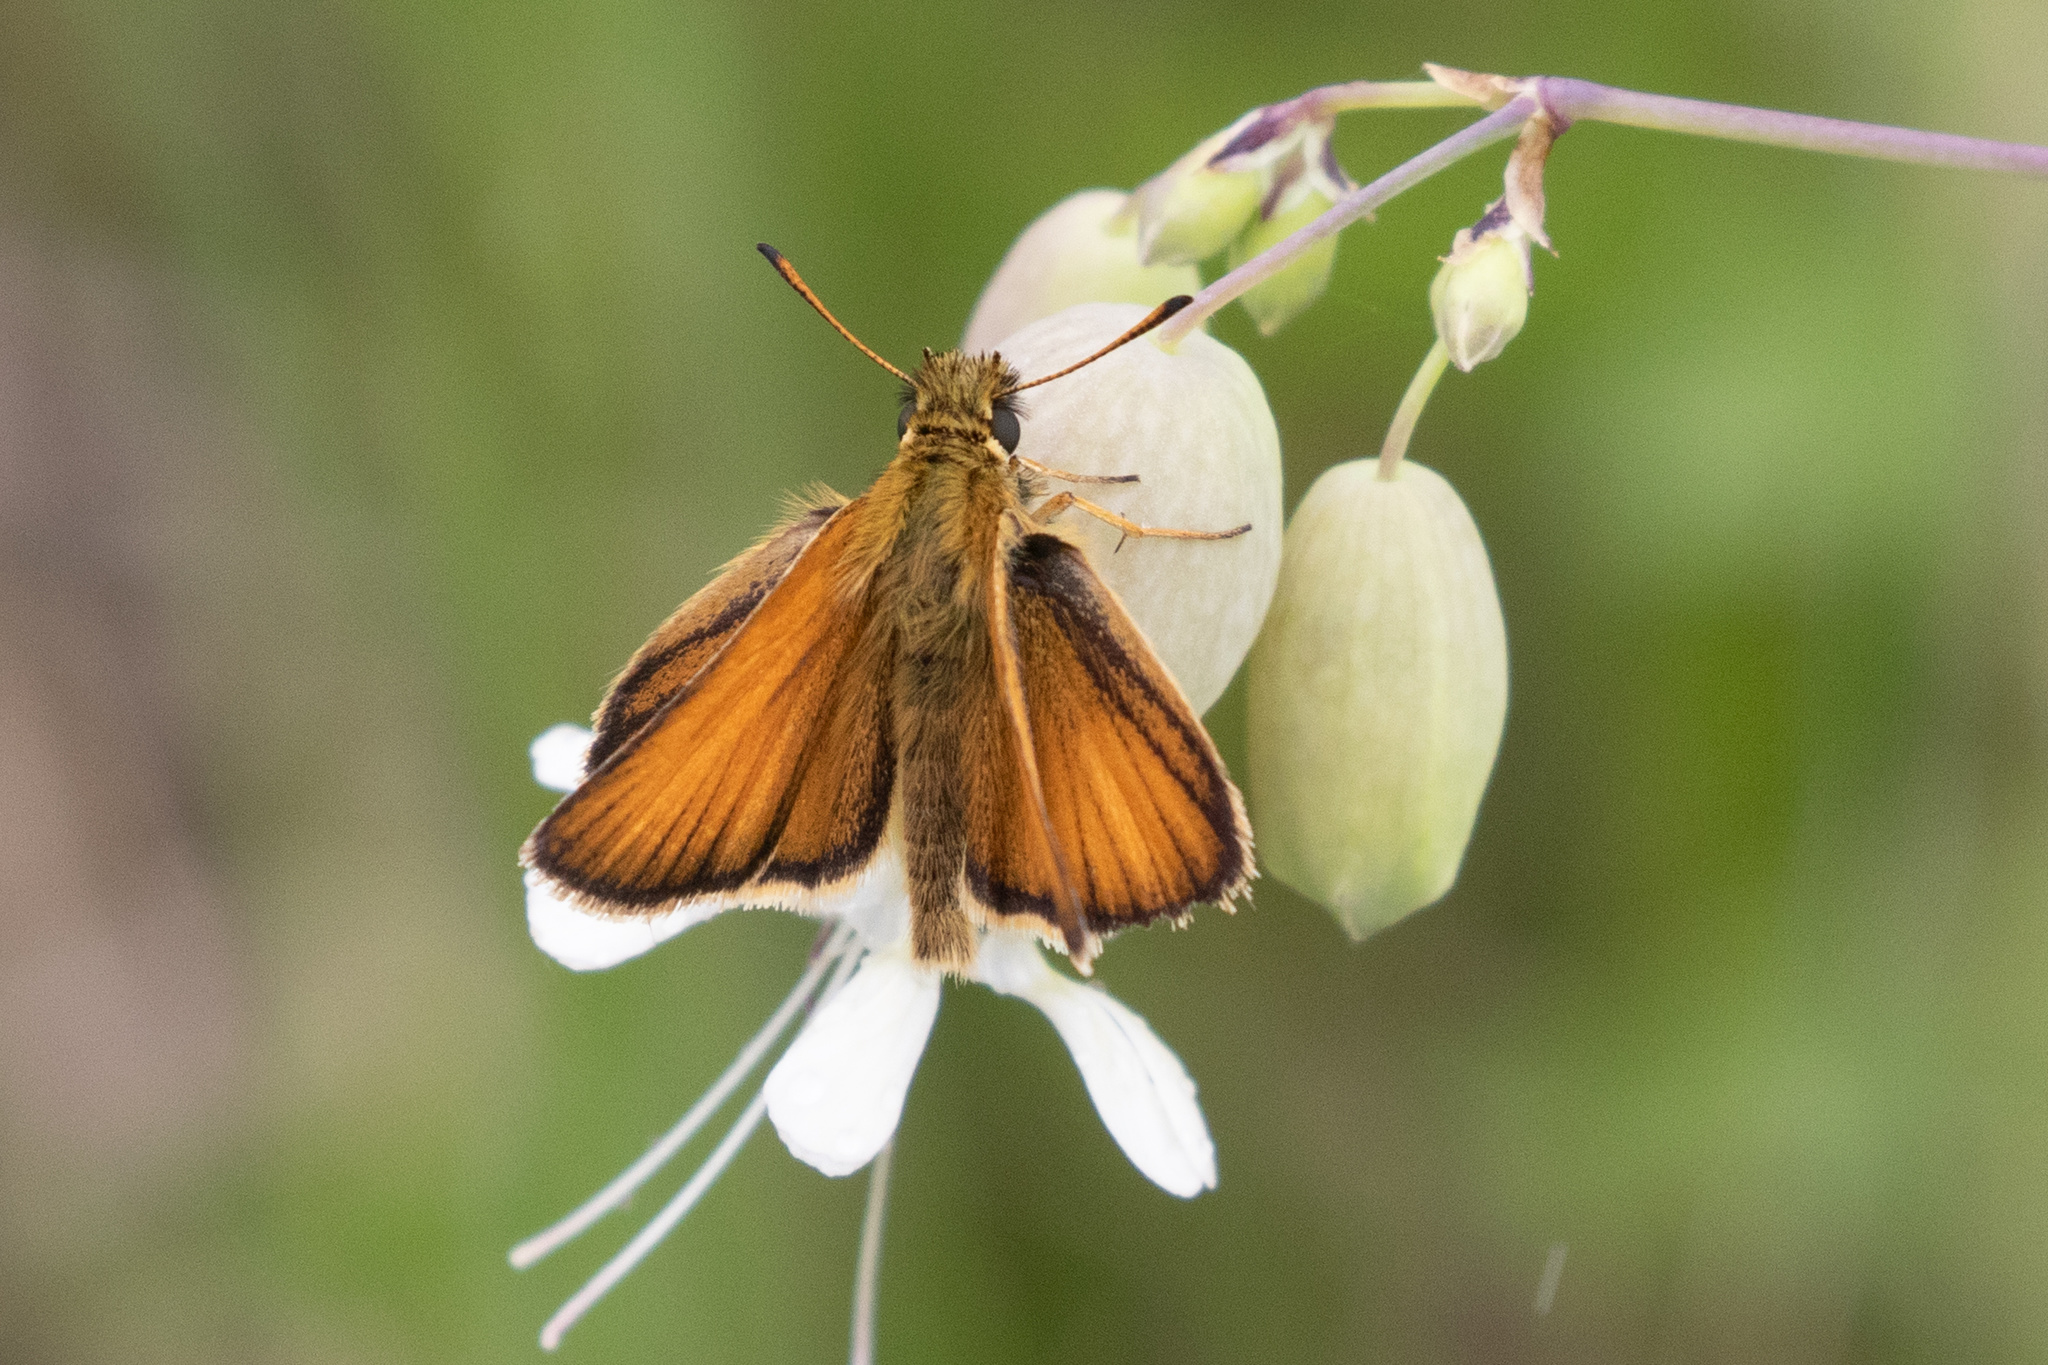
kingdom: Animalia
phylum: Arthropoda
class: Insecta
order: Lepidoptera
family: Hesperiidae
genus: Thymelicus
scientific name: Thymelicus lineola
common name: Essex skipper
